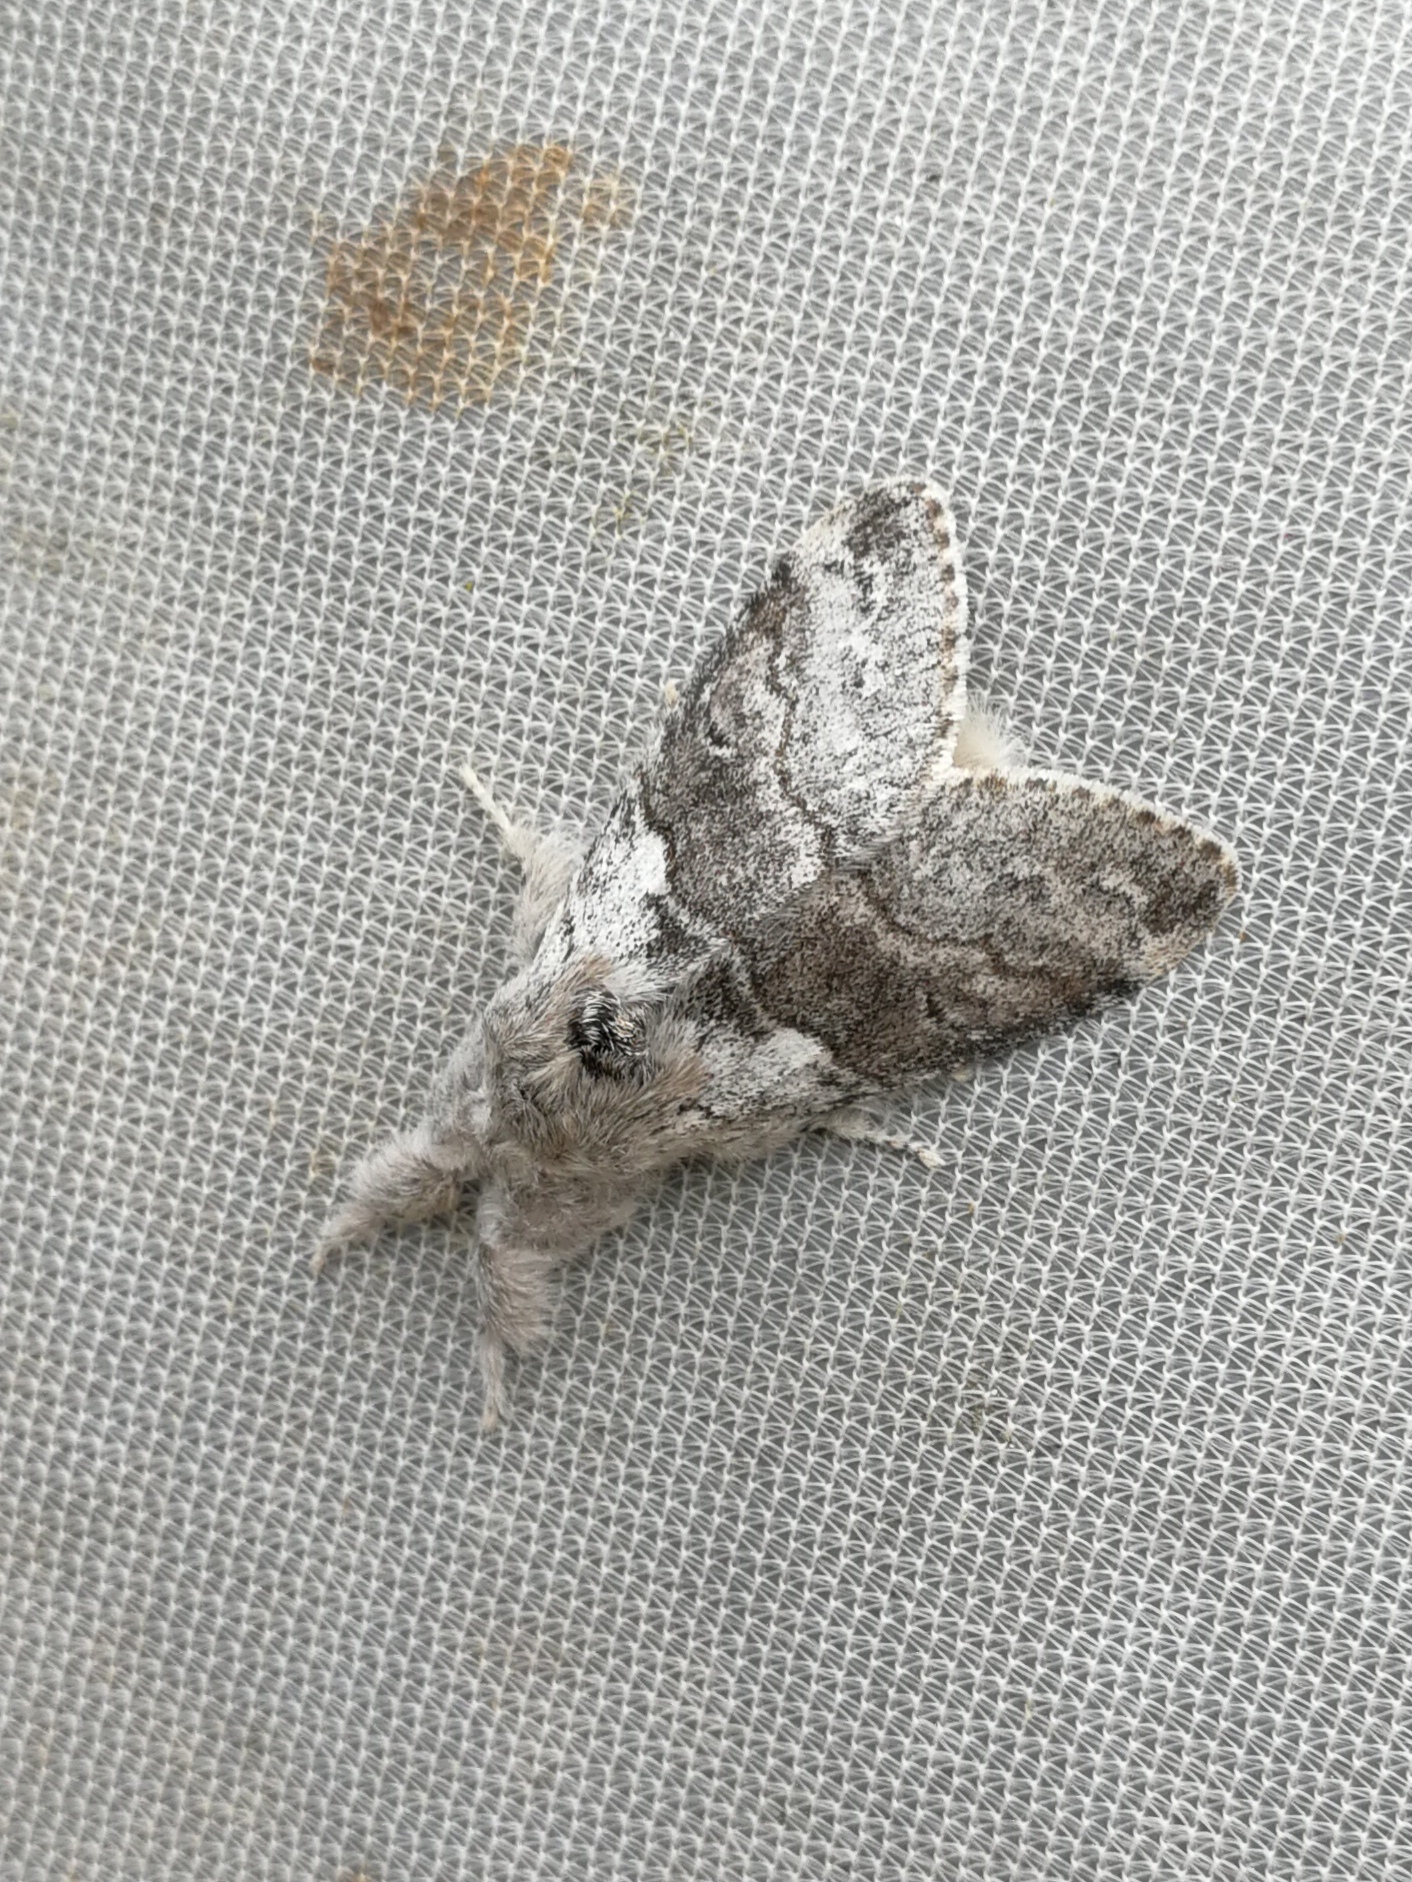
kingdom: Animalia
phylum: Arthropoda
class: Insecta
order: Lepidoptera
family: Erebidae
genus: Calliteara
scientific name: Calliteara pudibunda
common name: Pale tussock
